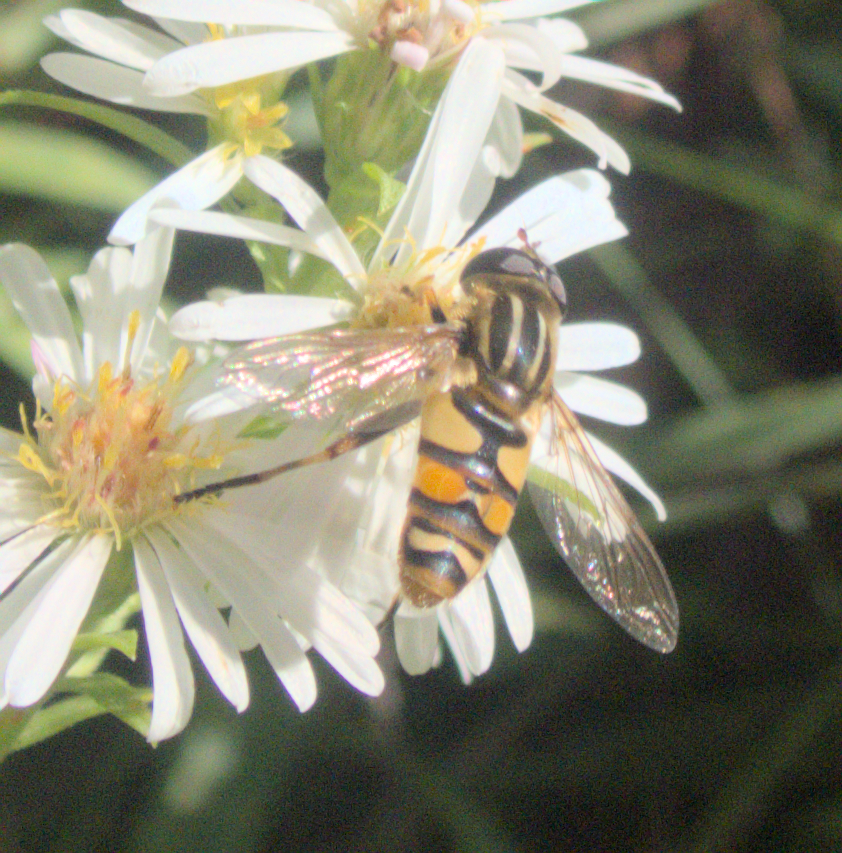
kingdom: Animalia
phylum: Arthropoda
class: Insecta
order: Diptera
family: Syrphidae
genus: Helophilus
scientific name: Helophilus fasciatus
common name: Narrow-headed marsh fly
